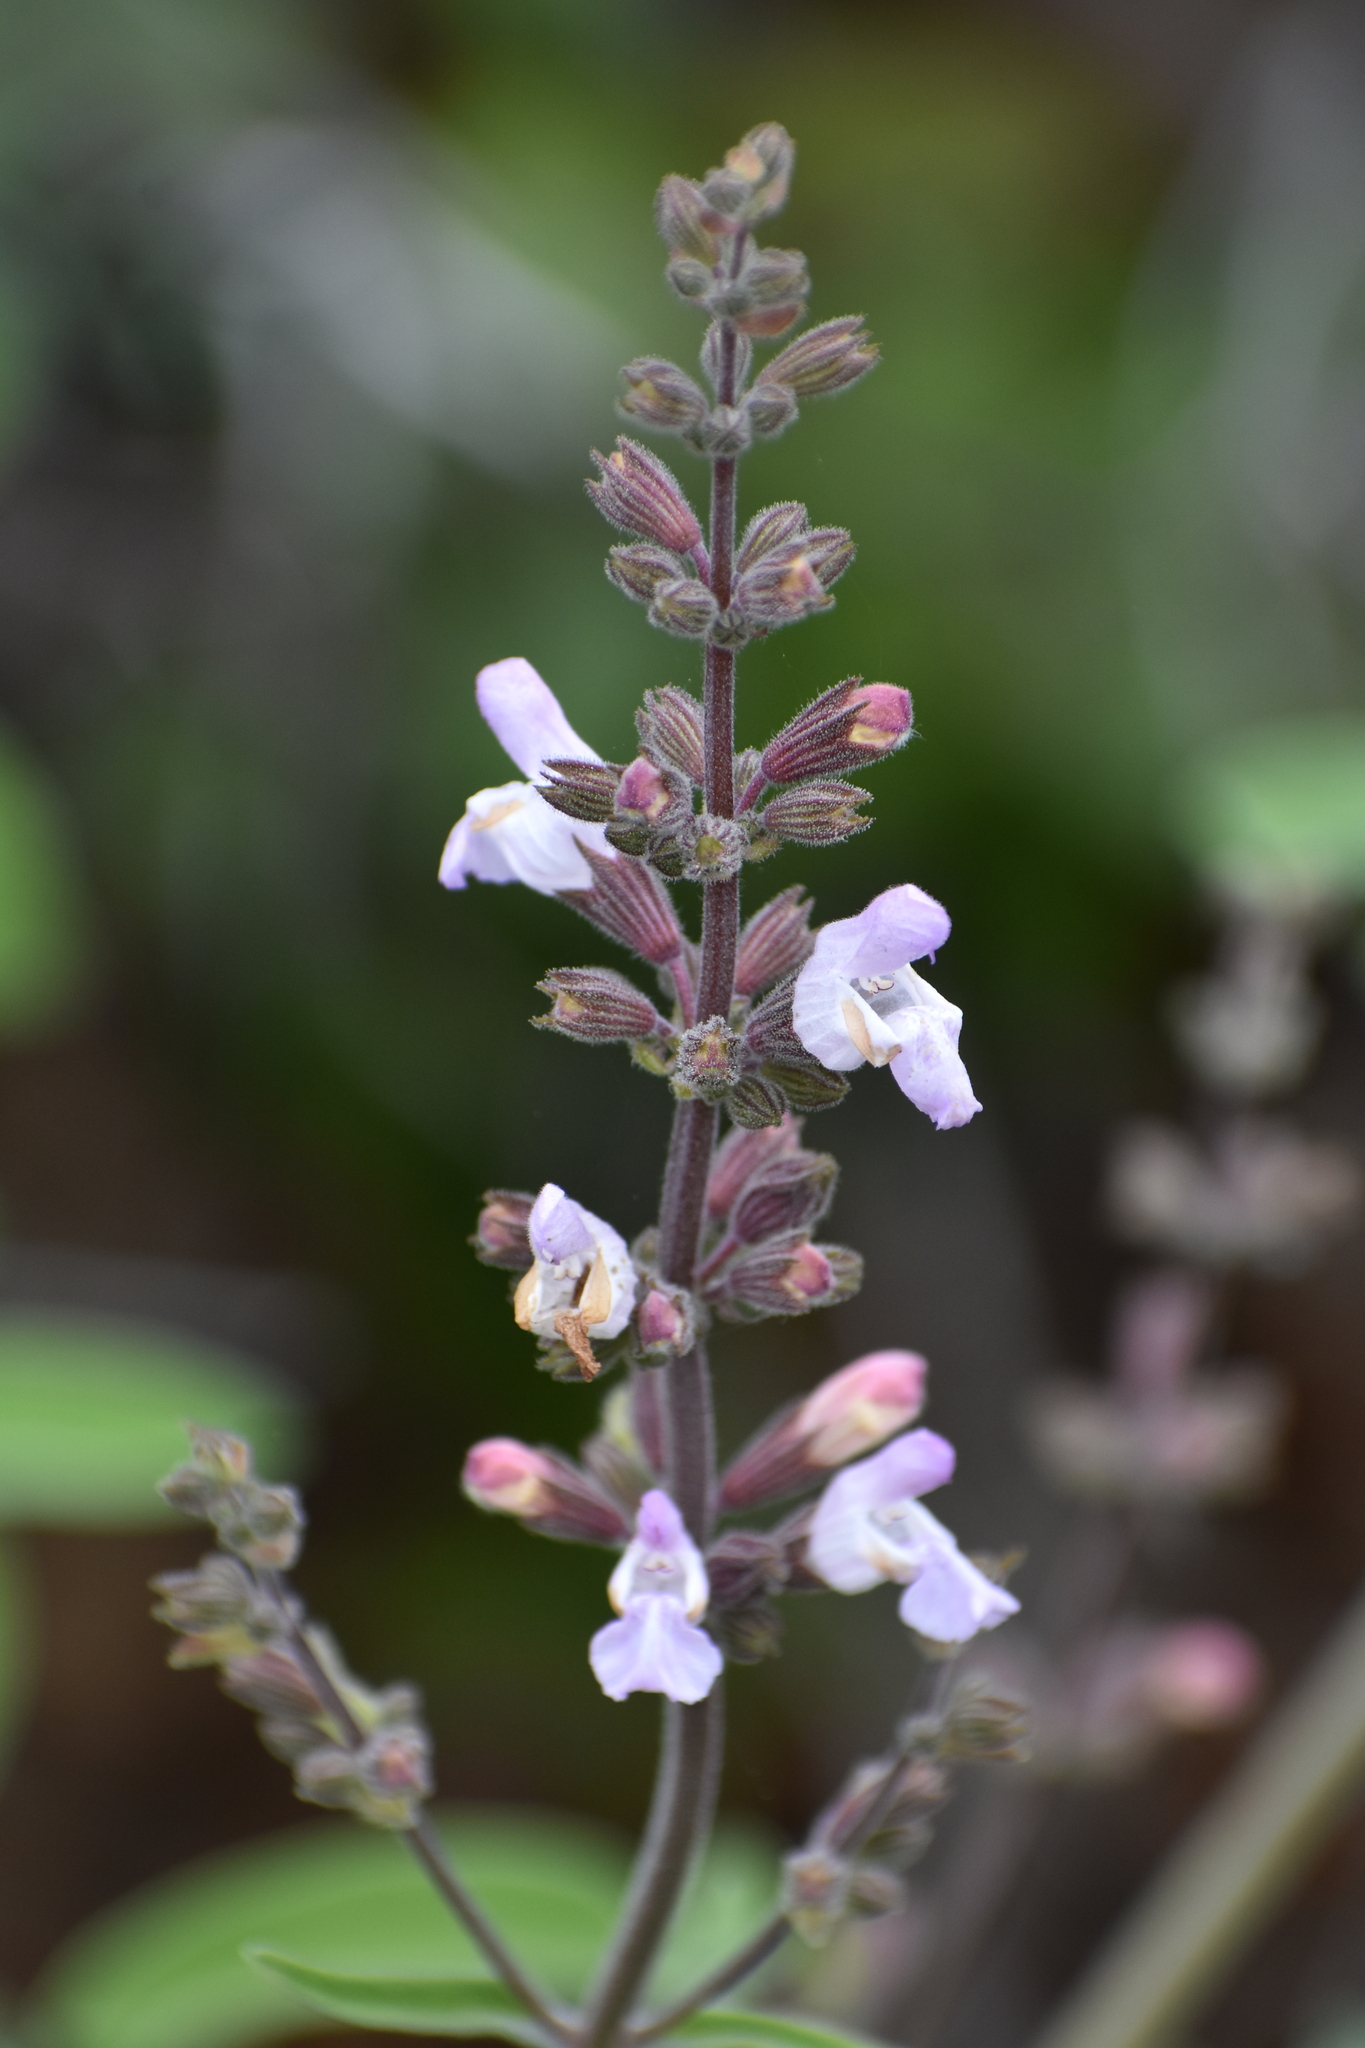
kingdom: Plantae
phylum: Tracheophyta
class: Magnoliopsida
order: Lamiales
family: Lamiaceae
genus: Salvia
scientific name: Salvia fruticosa
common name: Greek sage
